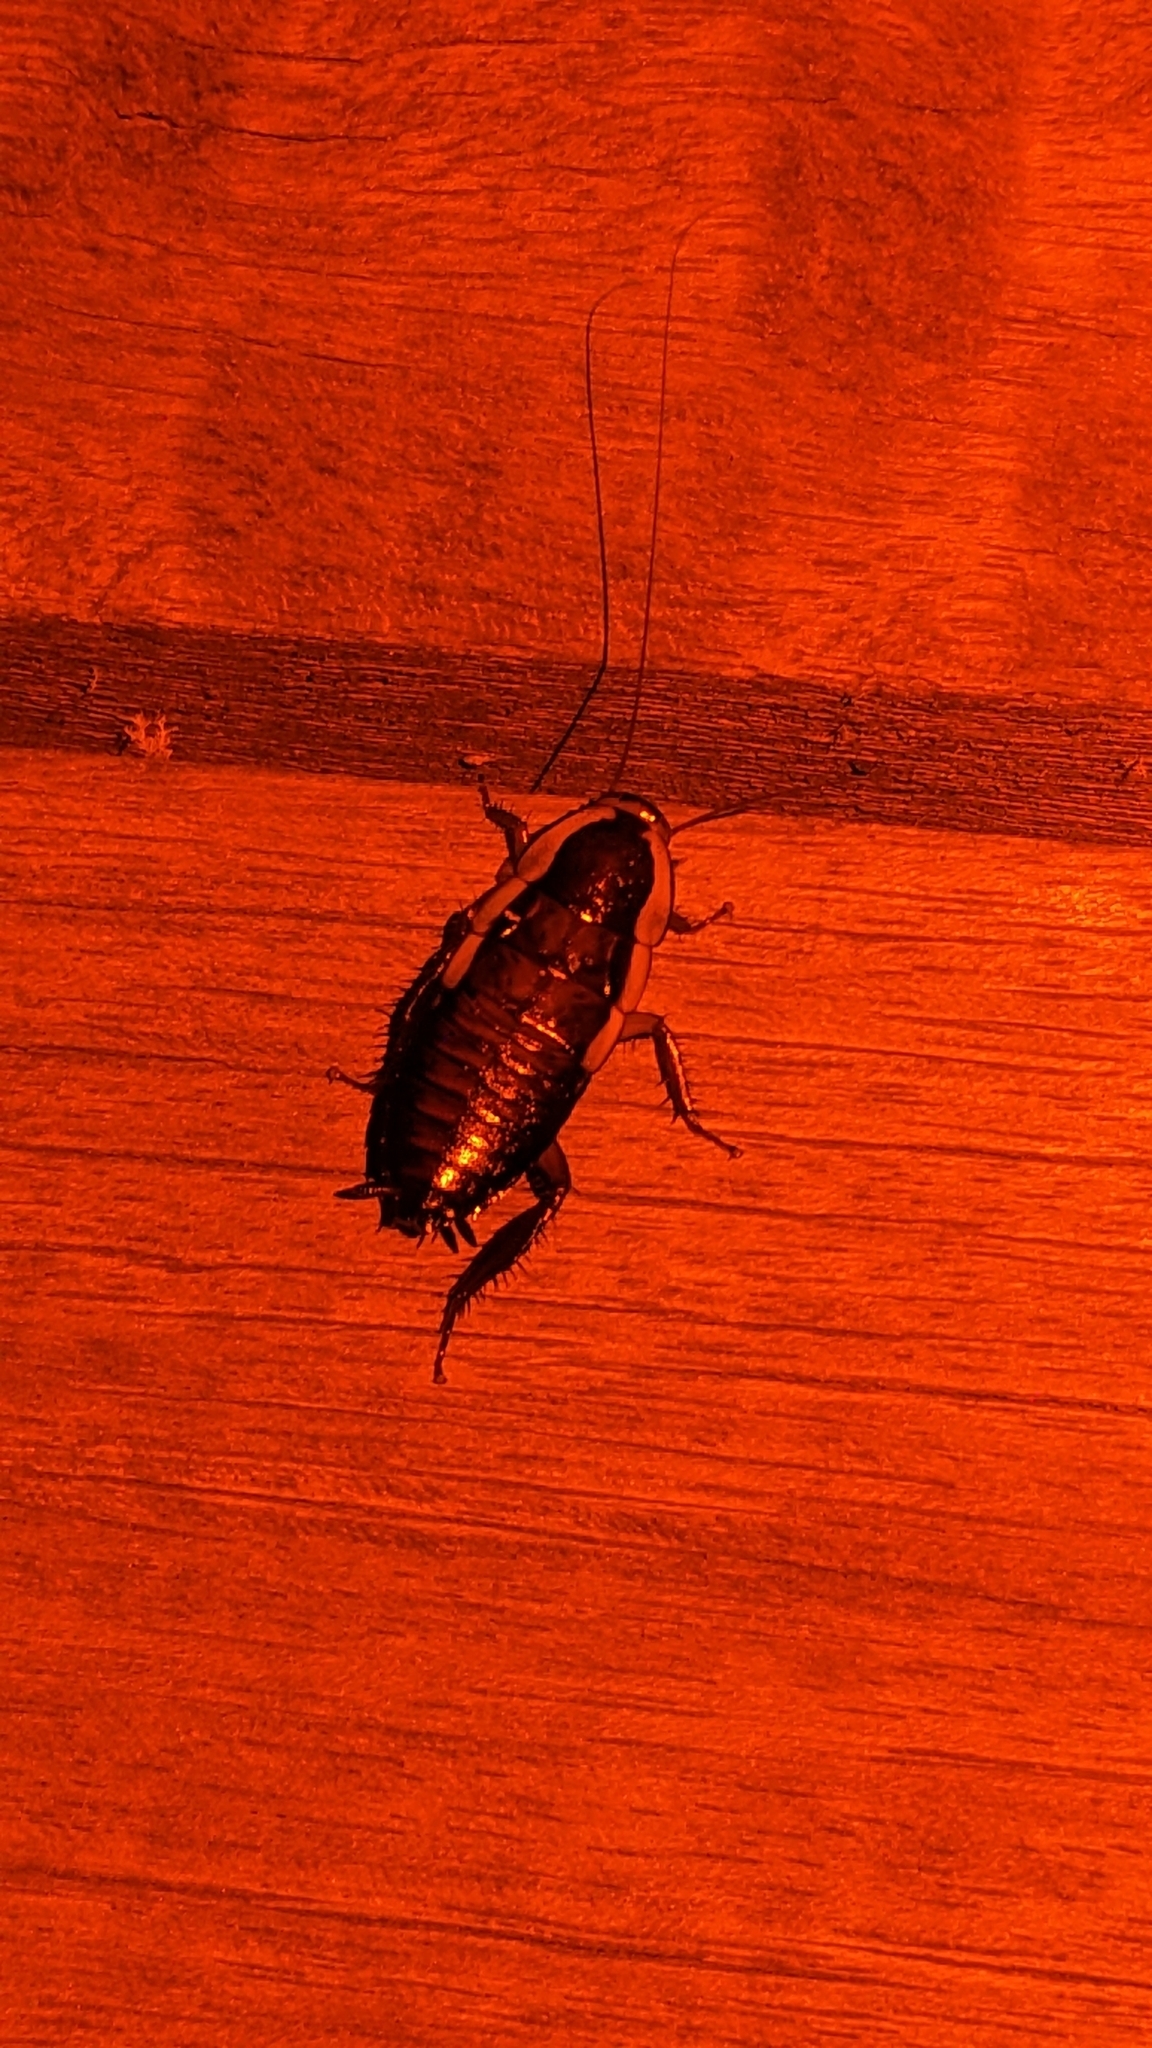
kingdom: Animalia
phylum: Arthropoda
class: Insecta
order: Blattodea
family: Blattidae
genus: Drymaplaneta
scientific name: Drymaplaneta semivitta
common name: Gisborne cockroach
